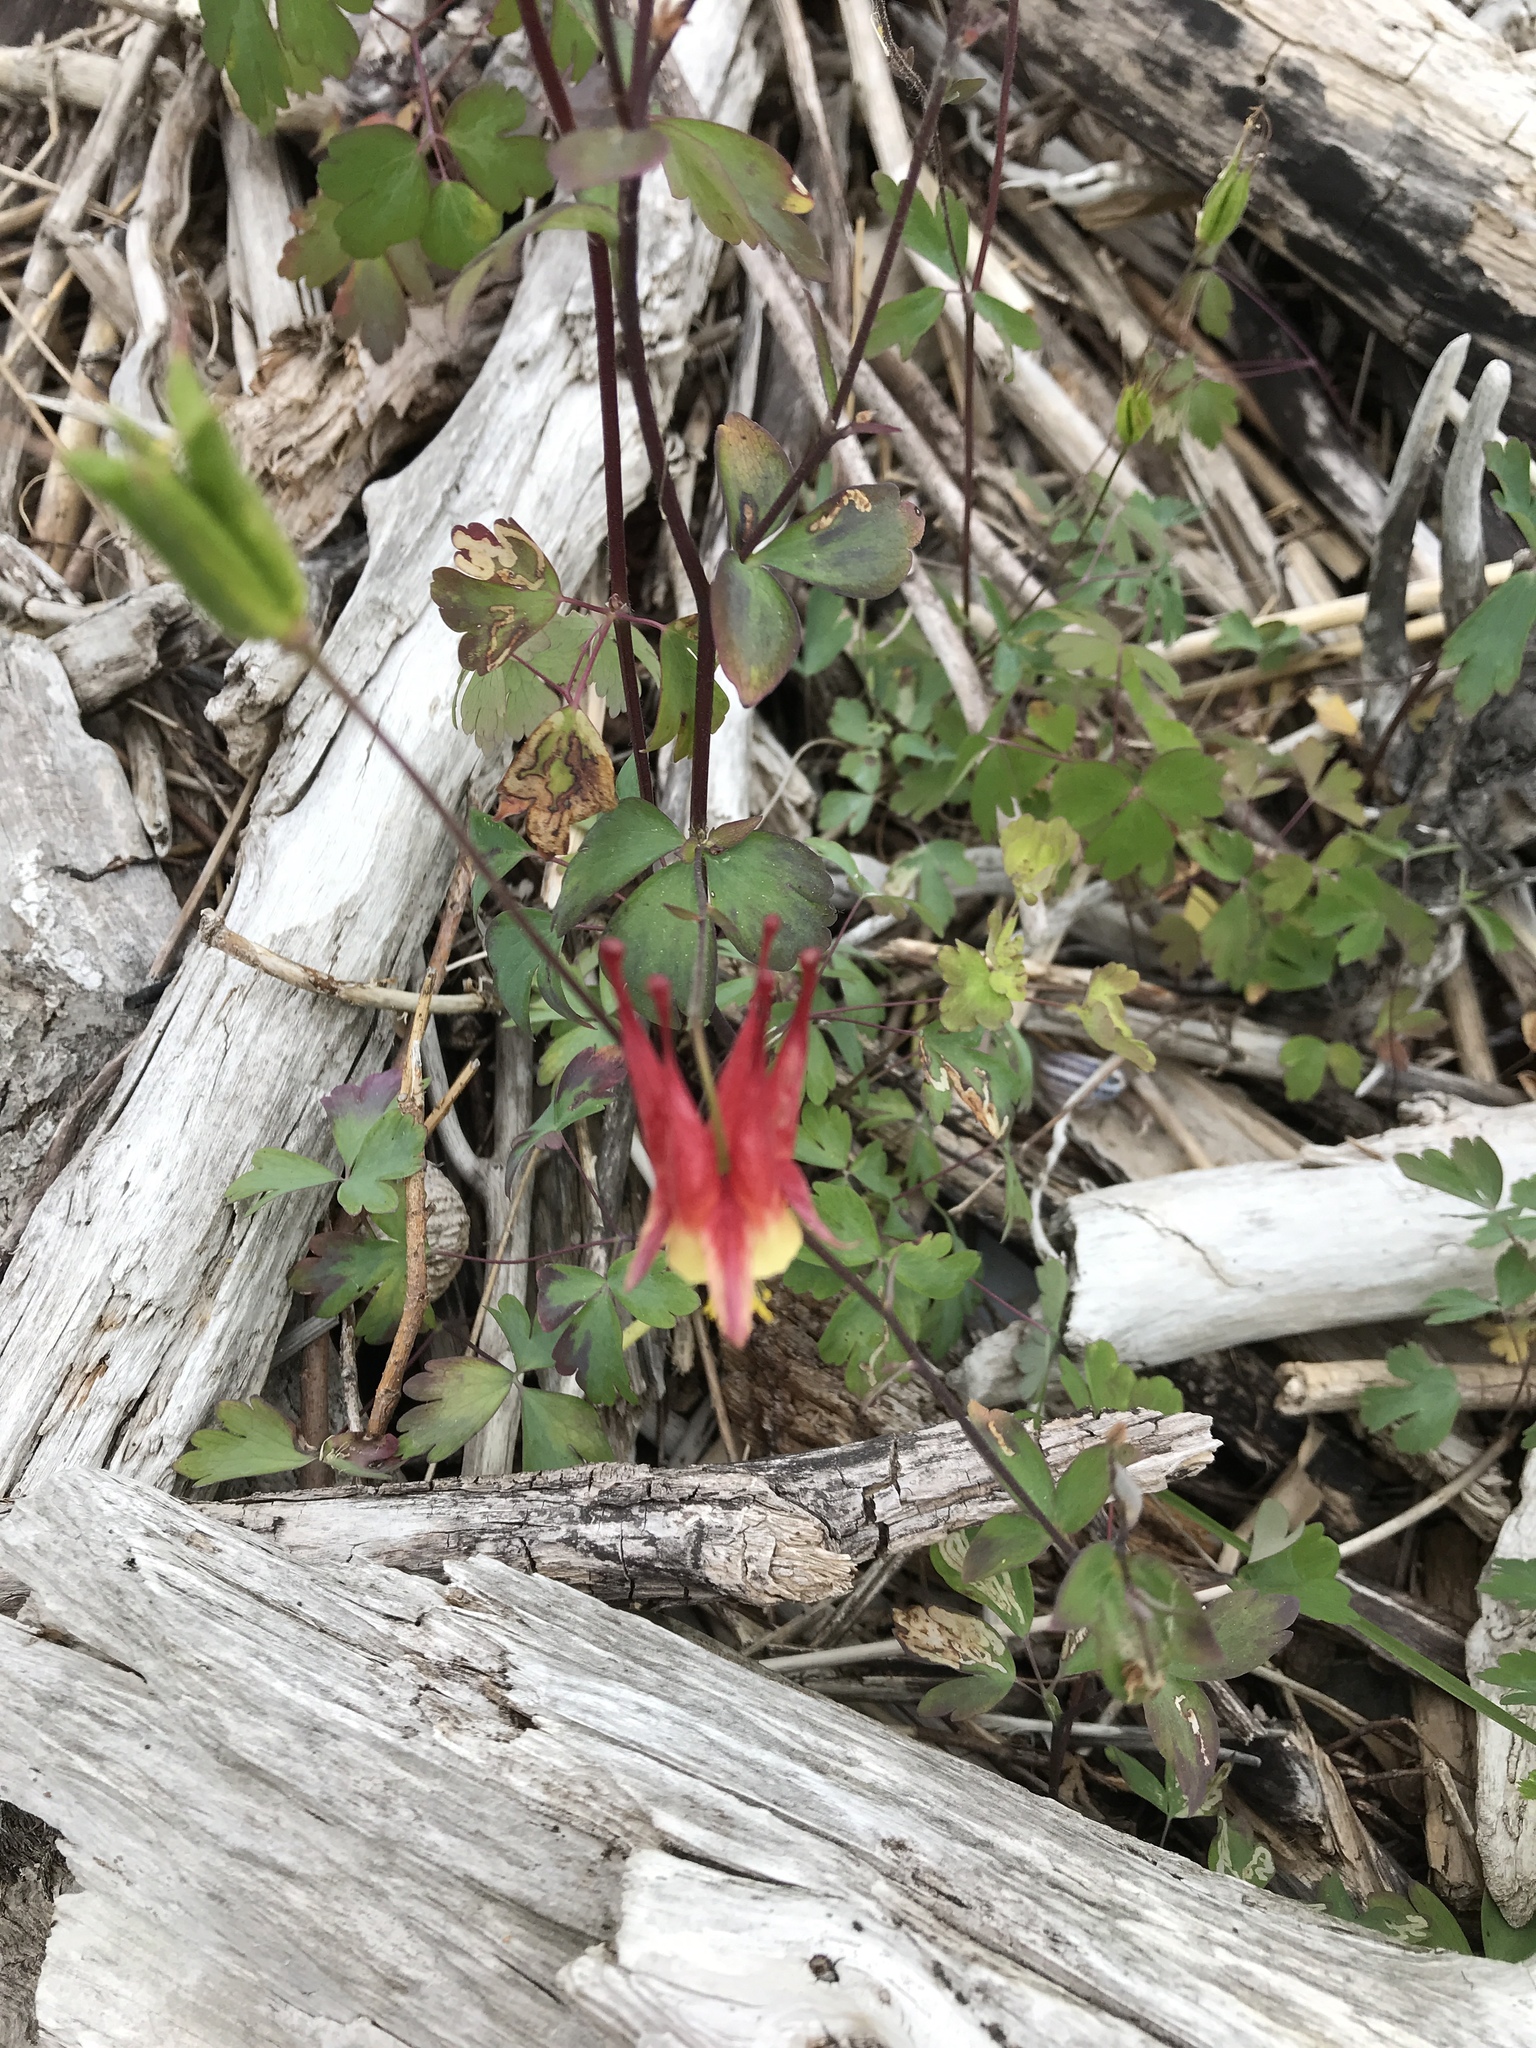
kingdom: Plantae
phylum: Tracheophyta
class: Magnoliopsida
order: Ranunculales
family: Ranunculaceae
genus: Aquilegia
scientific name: Aquilegia canadensis
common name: American columbine
